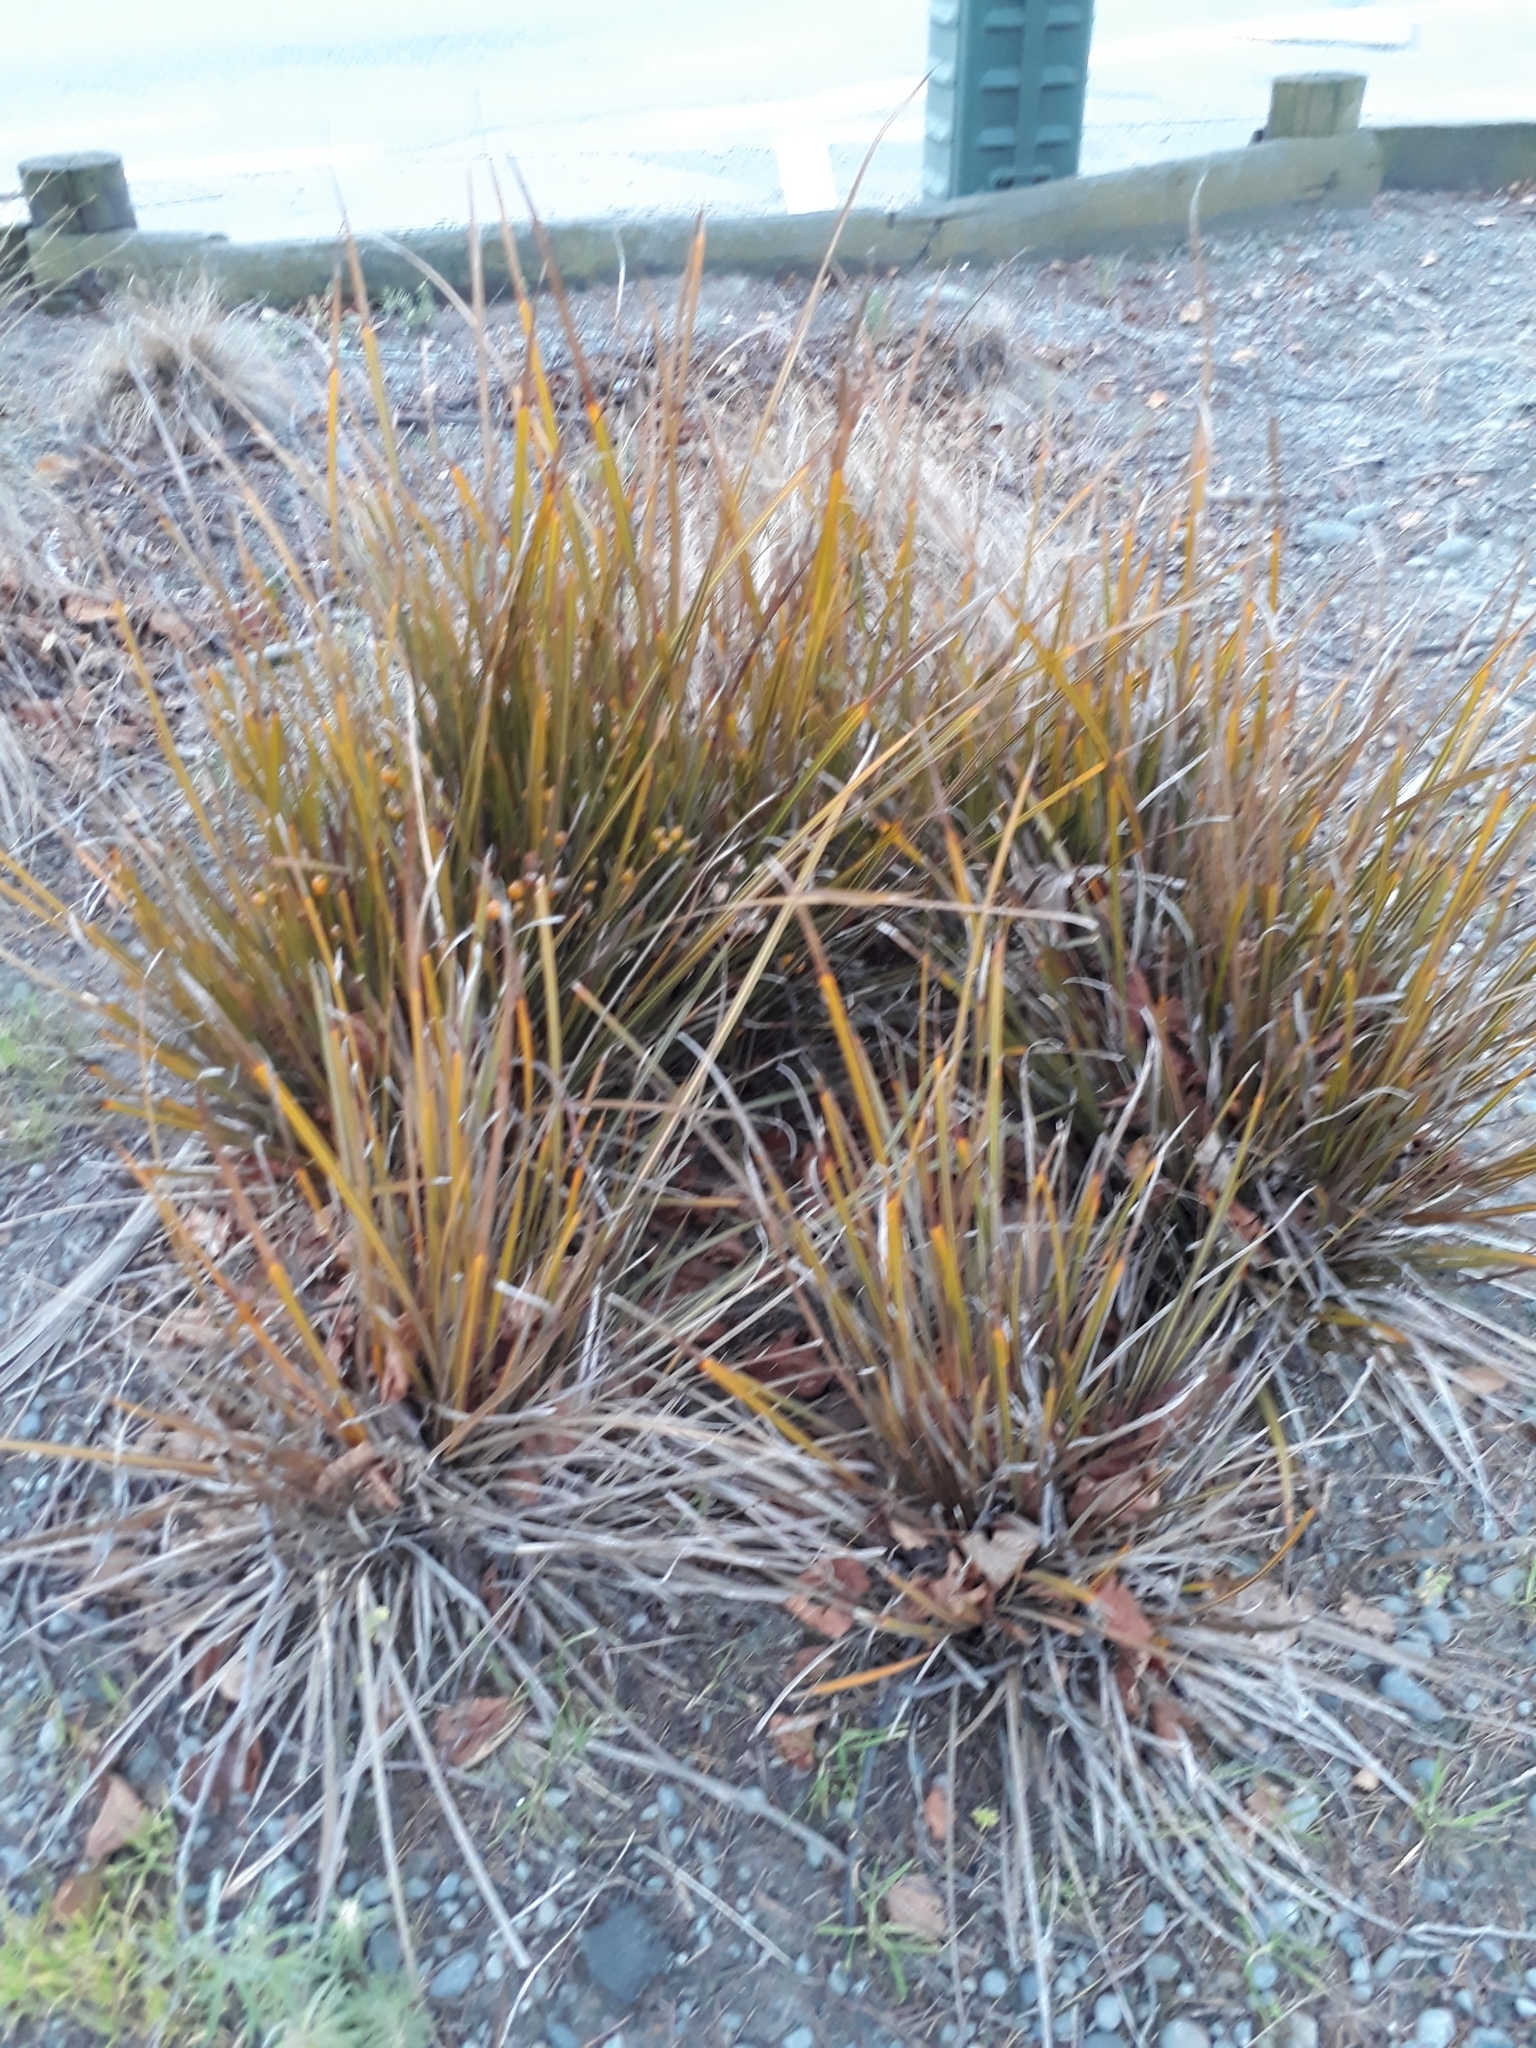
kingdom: Plantae
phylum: Tracheophyta
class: Liliopsida
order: Asparagales
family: Iridaceae
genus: Libertia
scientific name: Libertia ixioides
